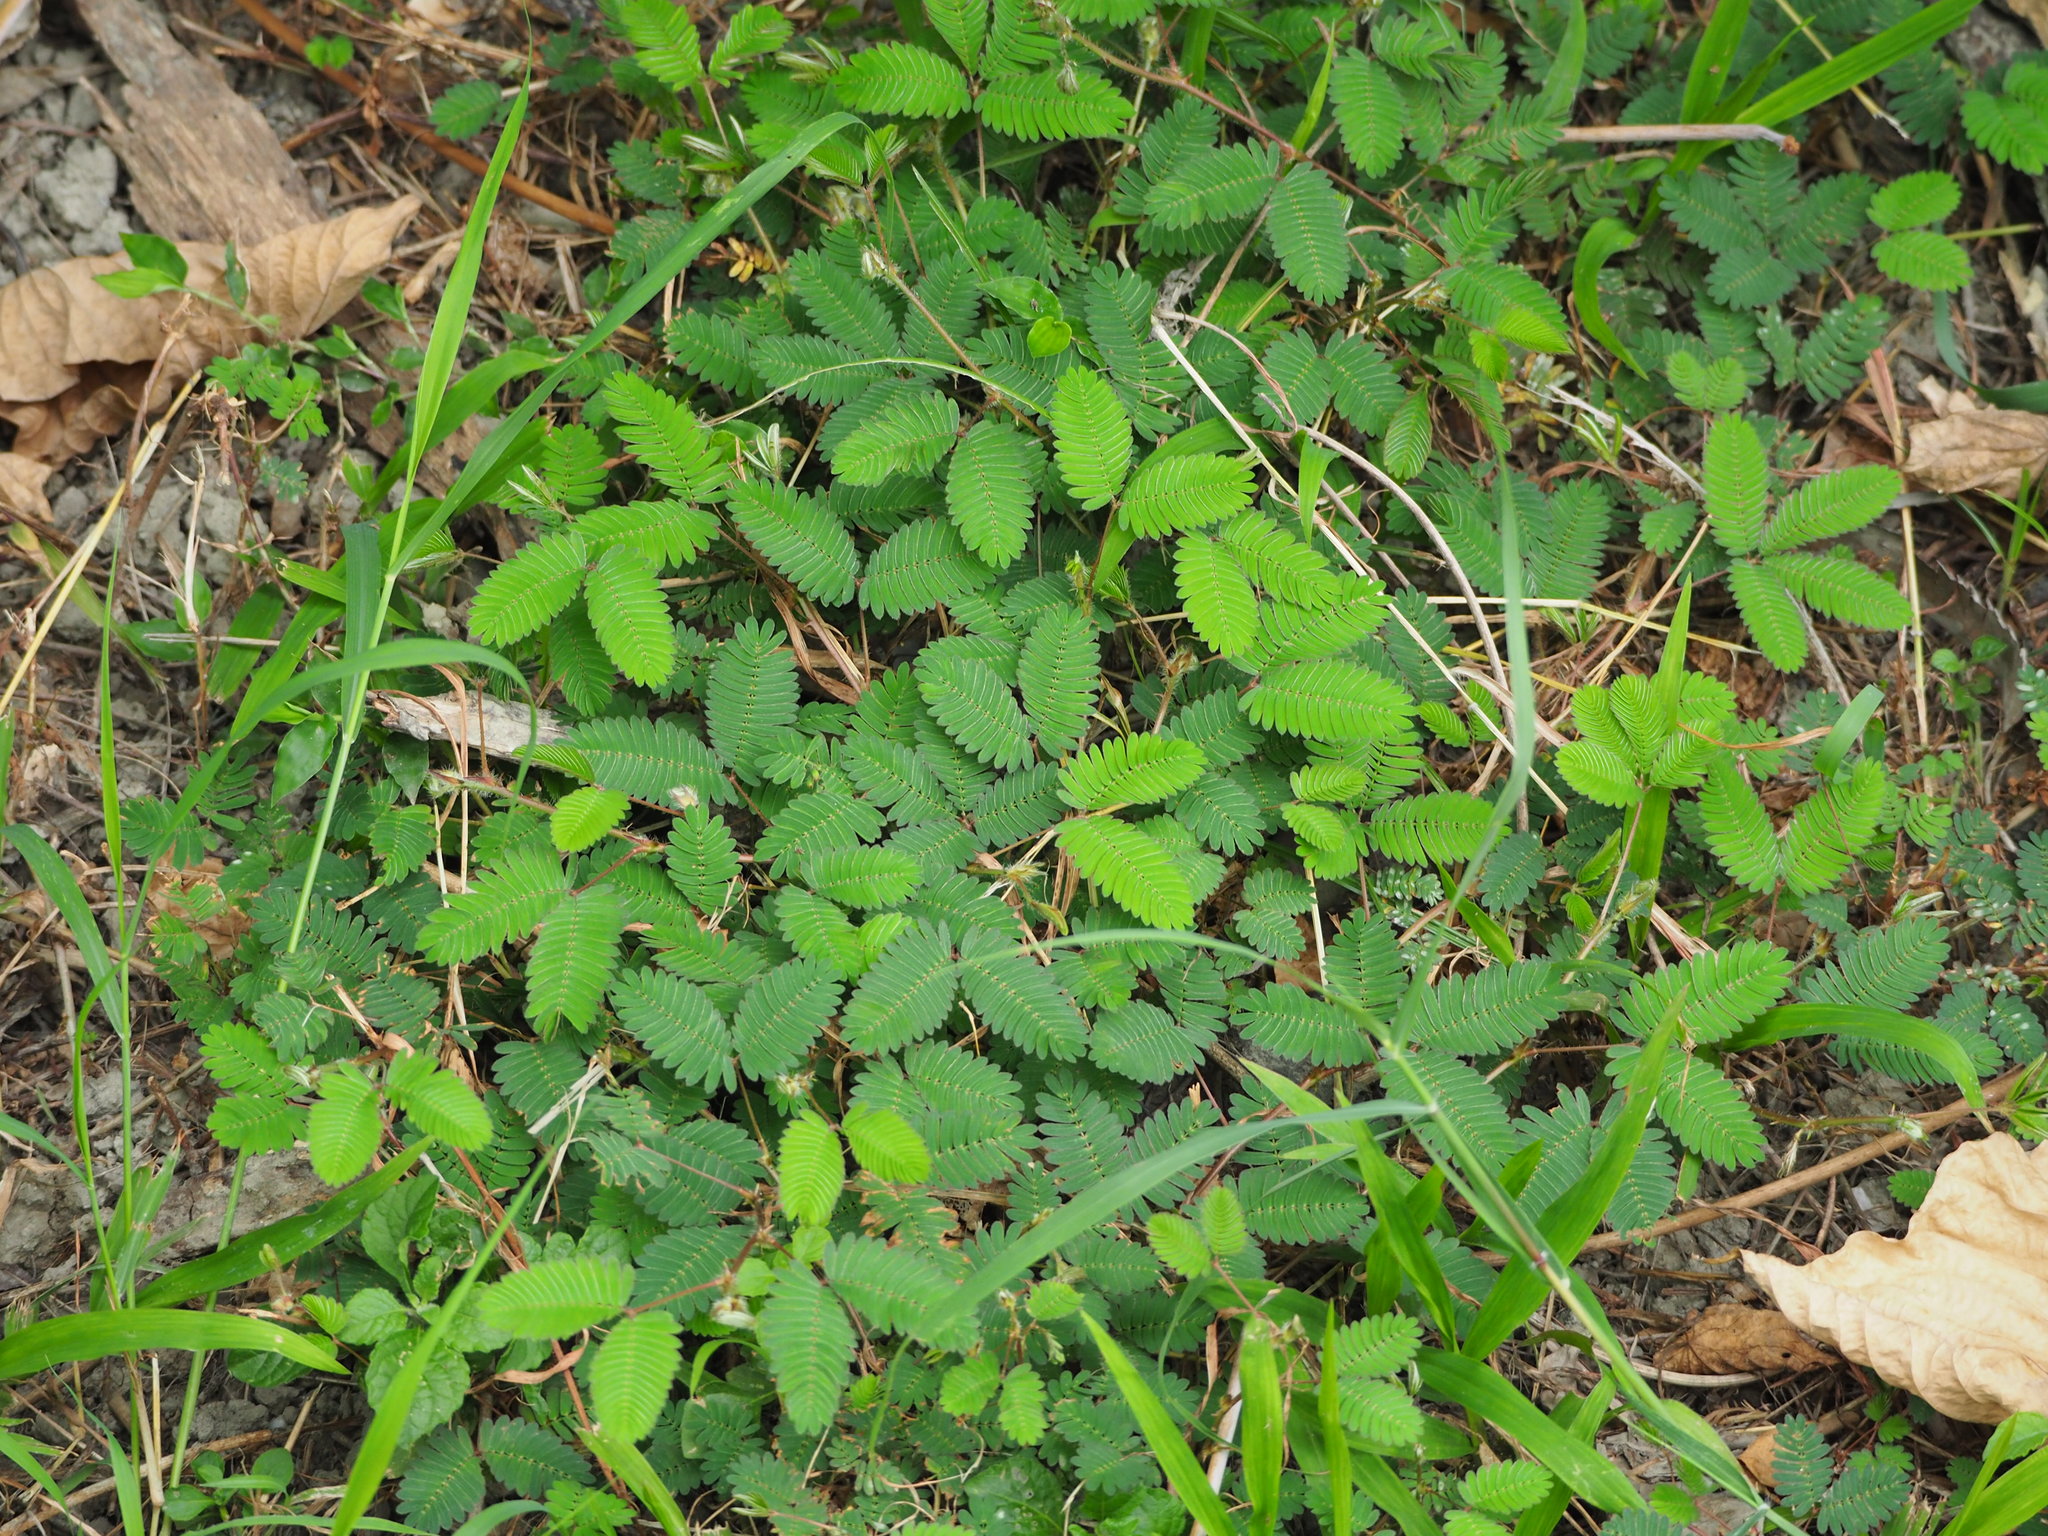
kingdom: Plantae
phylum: Tracheophyta
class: Magnoliopsida
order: Fabales
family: Fabaceae
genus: Mimosa
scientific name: Mimosa pudica
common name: Sensitive plant
